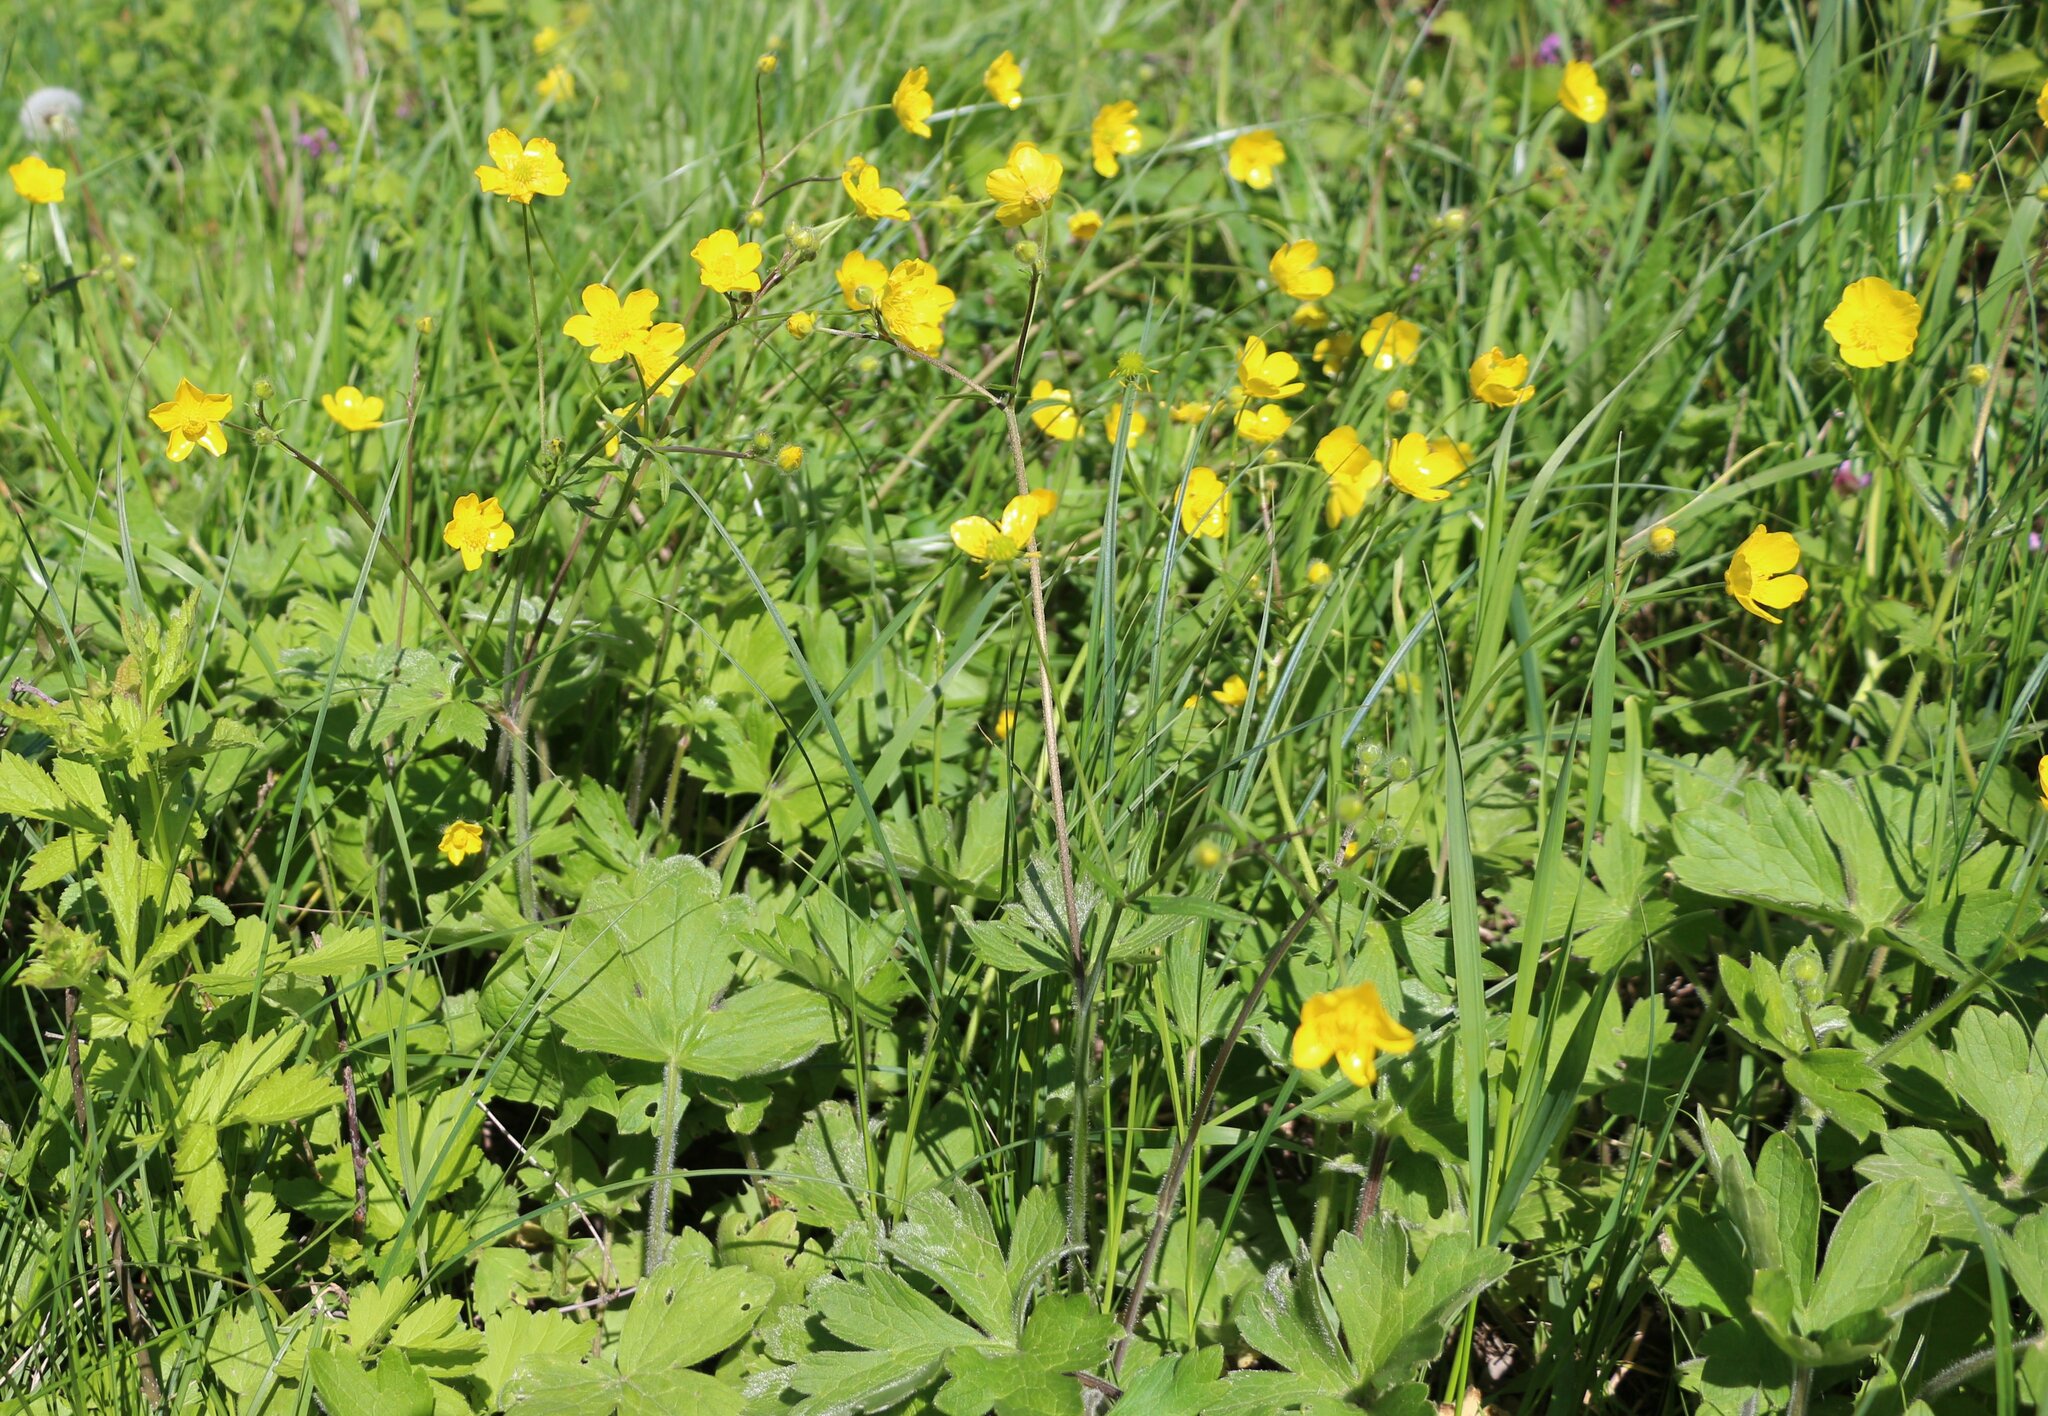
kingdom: Plantae
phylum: Tracheophyta
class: Magnoliopsida
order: Ranunculales
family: Ranunculaceae
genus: Ranunculus
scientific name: Ranunculus constantinopolitanus
